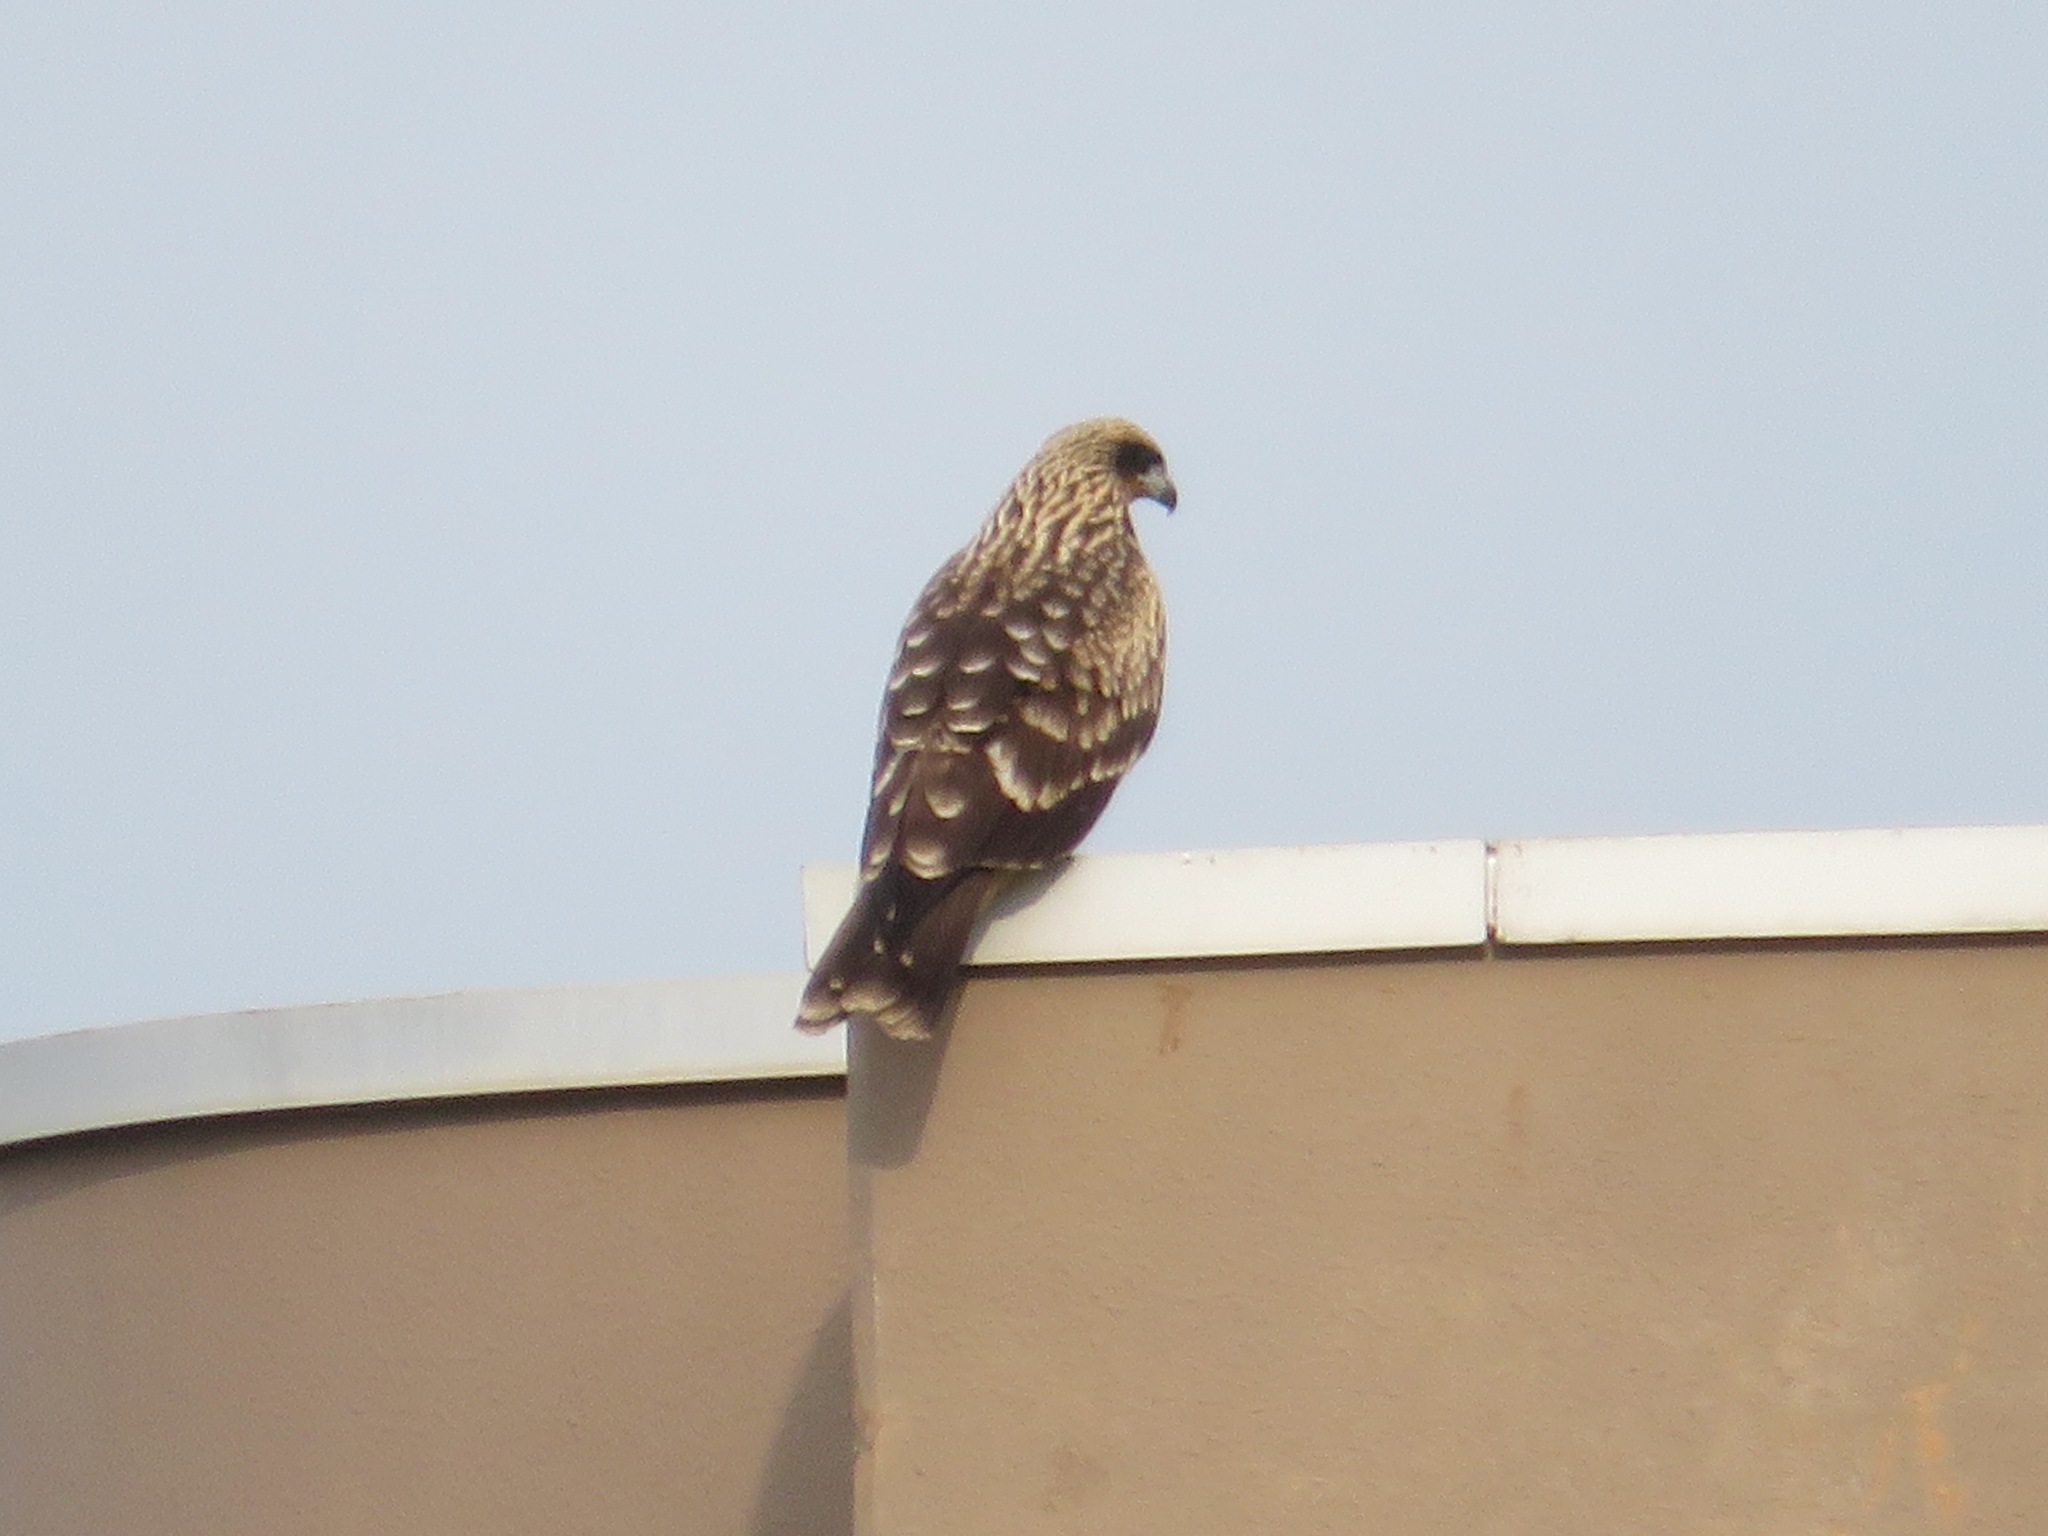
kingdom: Animalia
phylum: Chordata
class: Aves
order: Accipitriformes
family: Accipitridae
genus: Milvus
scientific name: Milvus migrans
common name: Black kite
